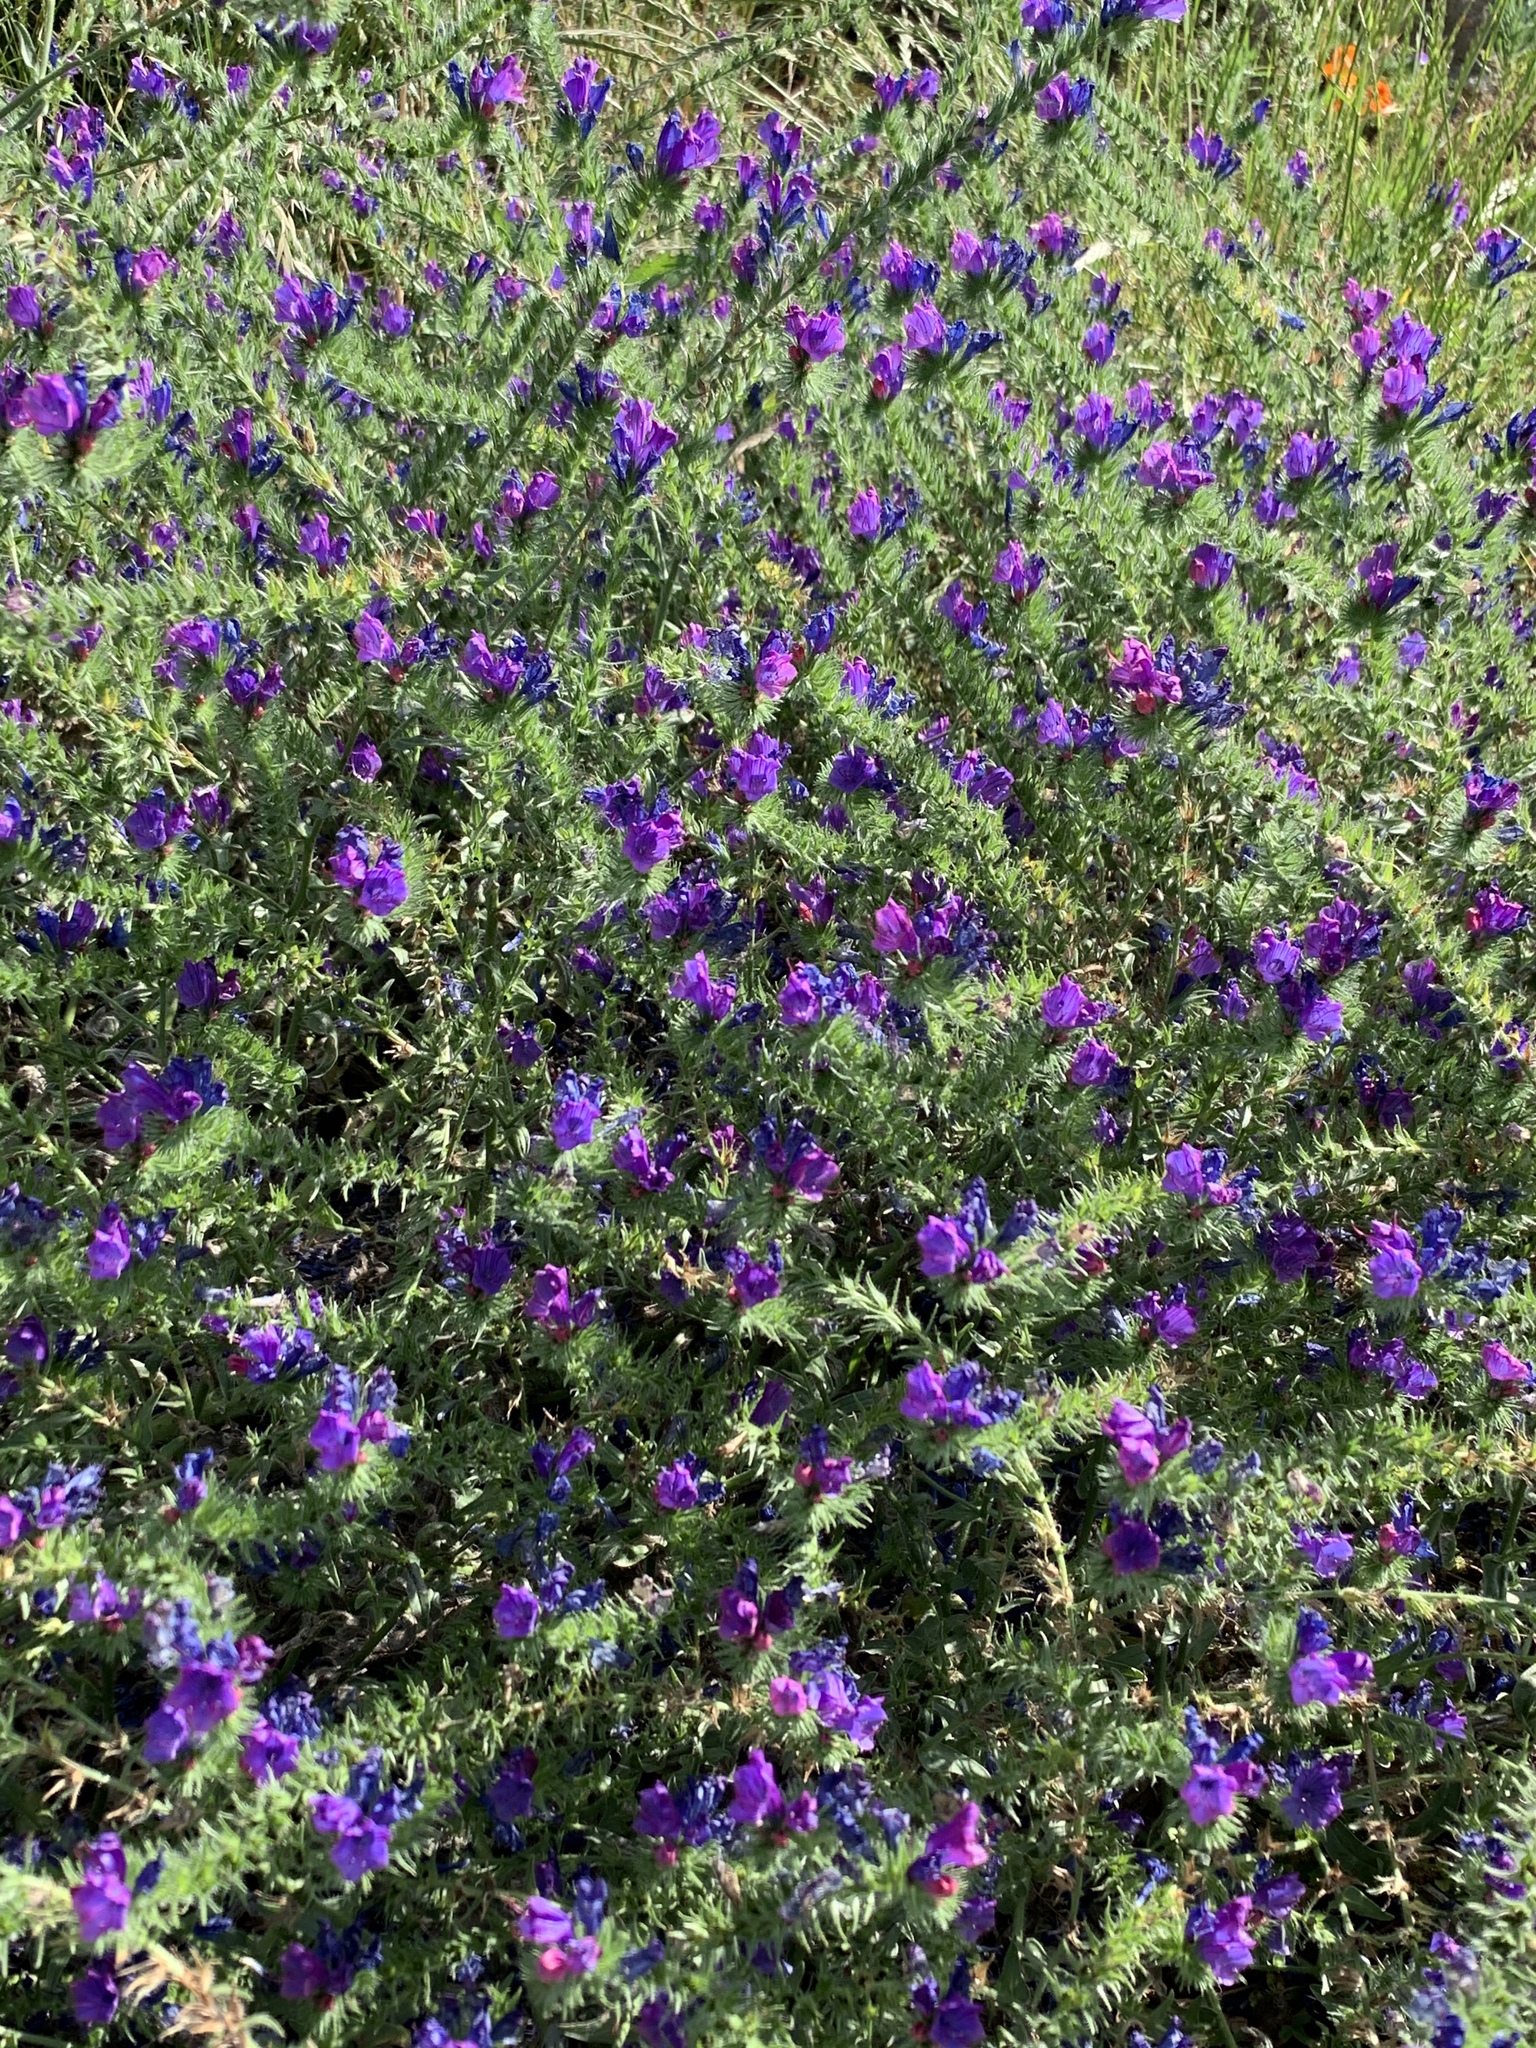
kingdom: Plantae
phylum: Tracheophyta
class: Magnoliopsida
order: Boraginales
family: Boraginaceae
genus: Echium
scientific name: Echium plantagineum
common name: Purple viper's-bugloss
